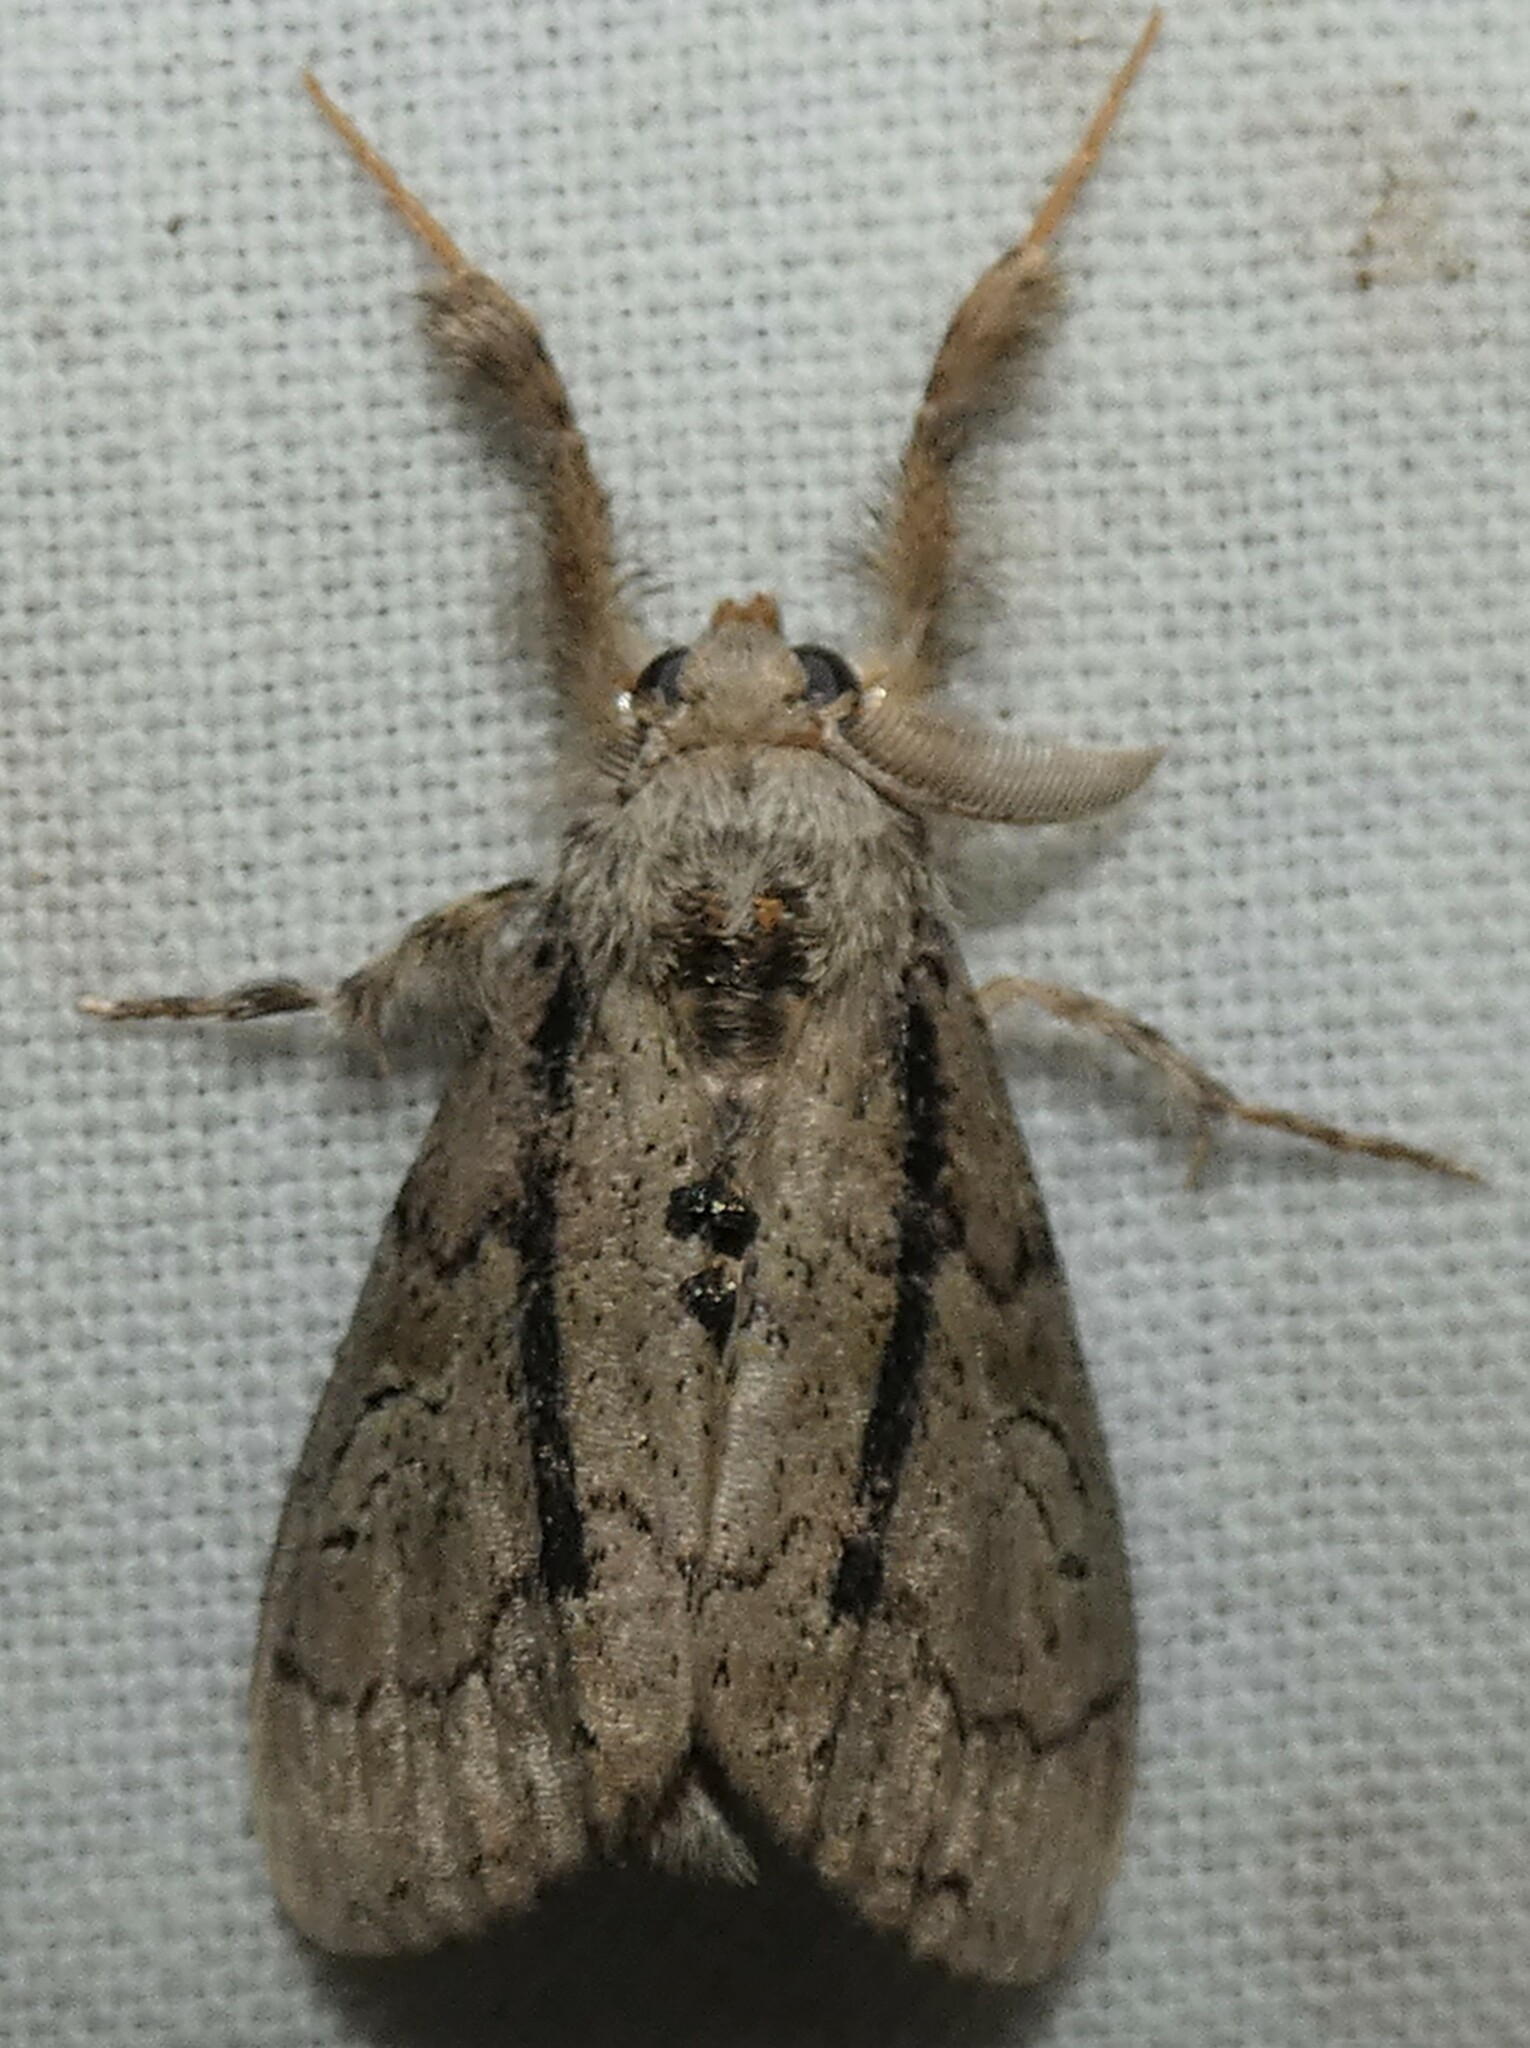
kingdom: Animalia
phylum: Arthropoda
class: Insecta
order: Lepidoptera
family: Erebidae
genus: Dasychira
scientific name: Dasychira obliquata
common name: Streaked tussock moth
